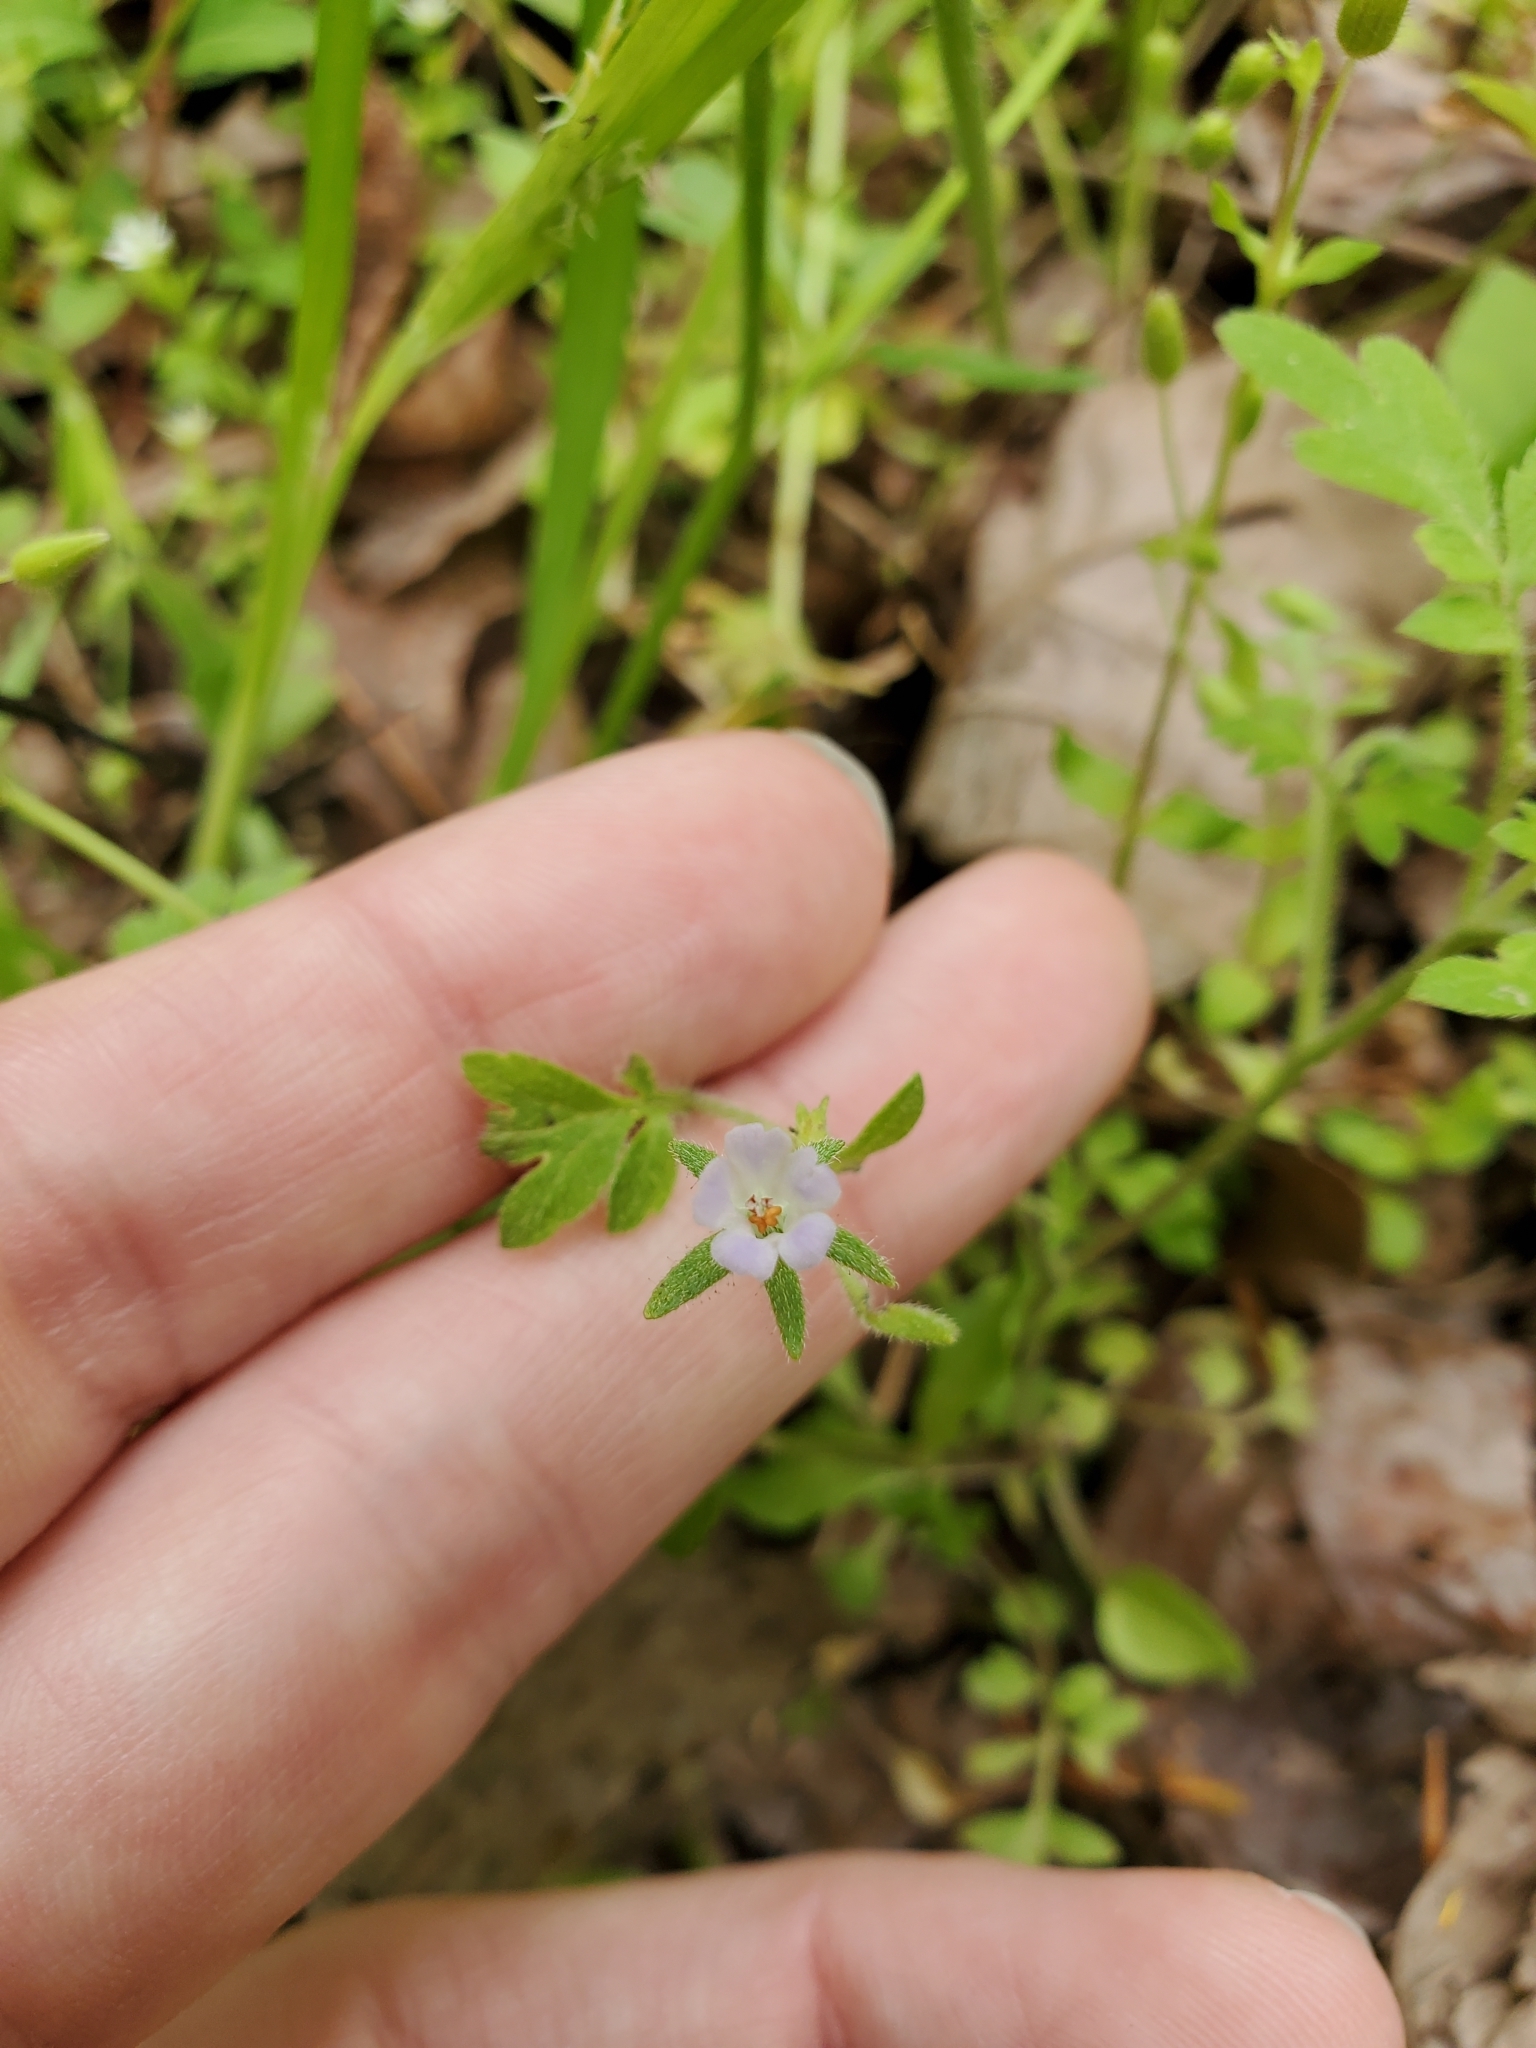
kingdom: Plantae
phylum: Tracheophyta
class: Magnoliopsida
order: Boraginales
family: Hydrophyllaceae
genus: Phacelia
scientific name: Phacelia covillei
